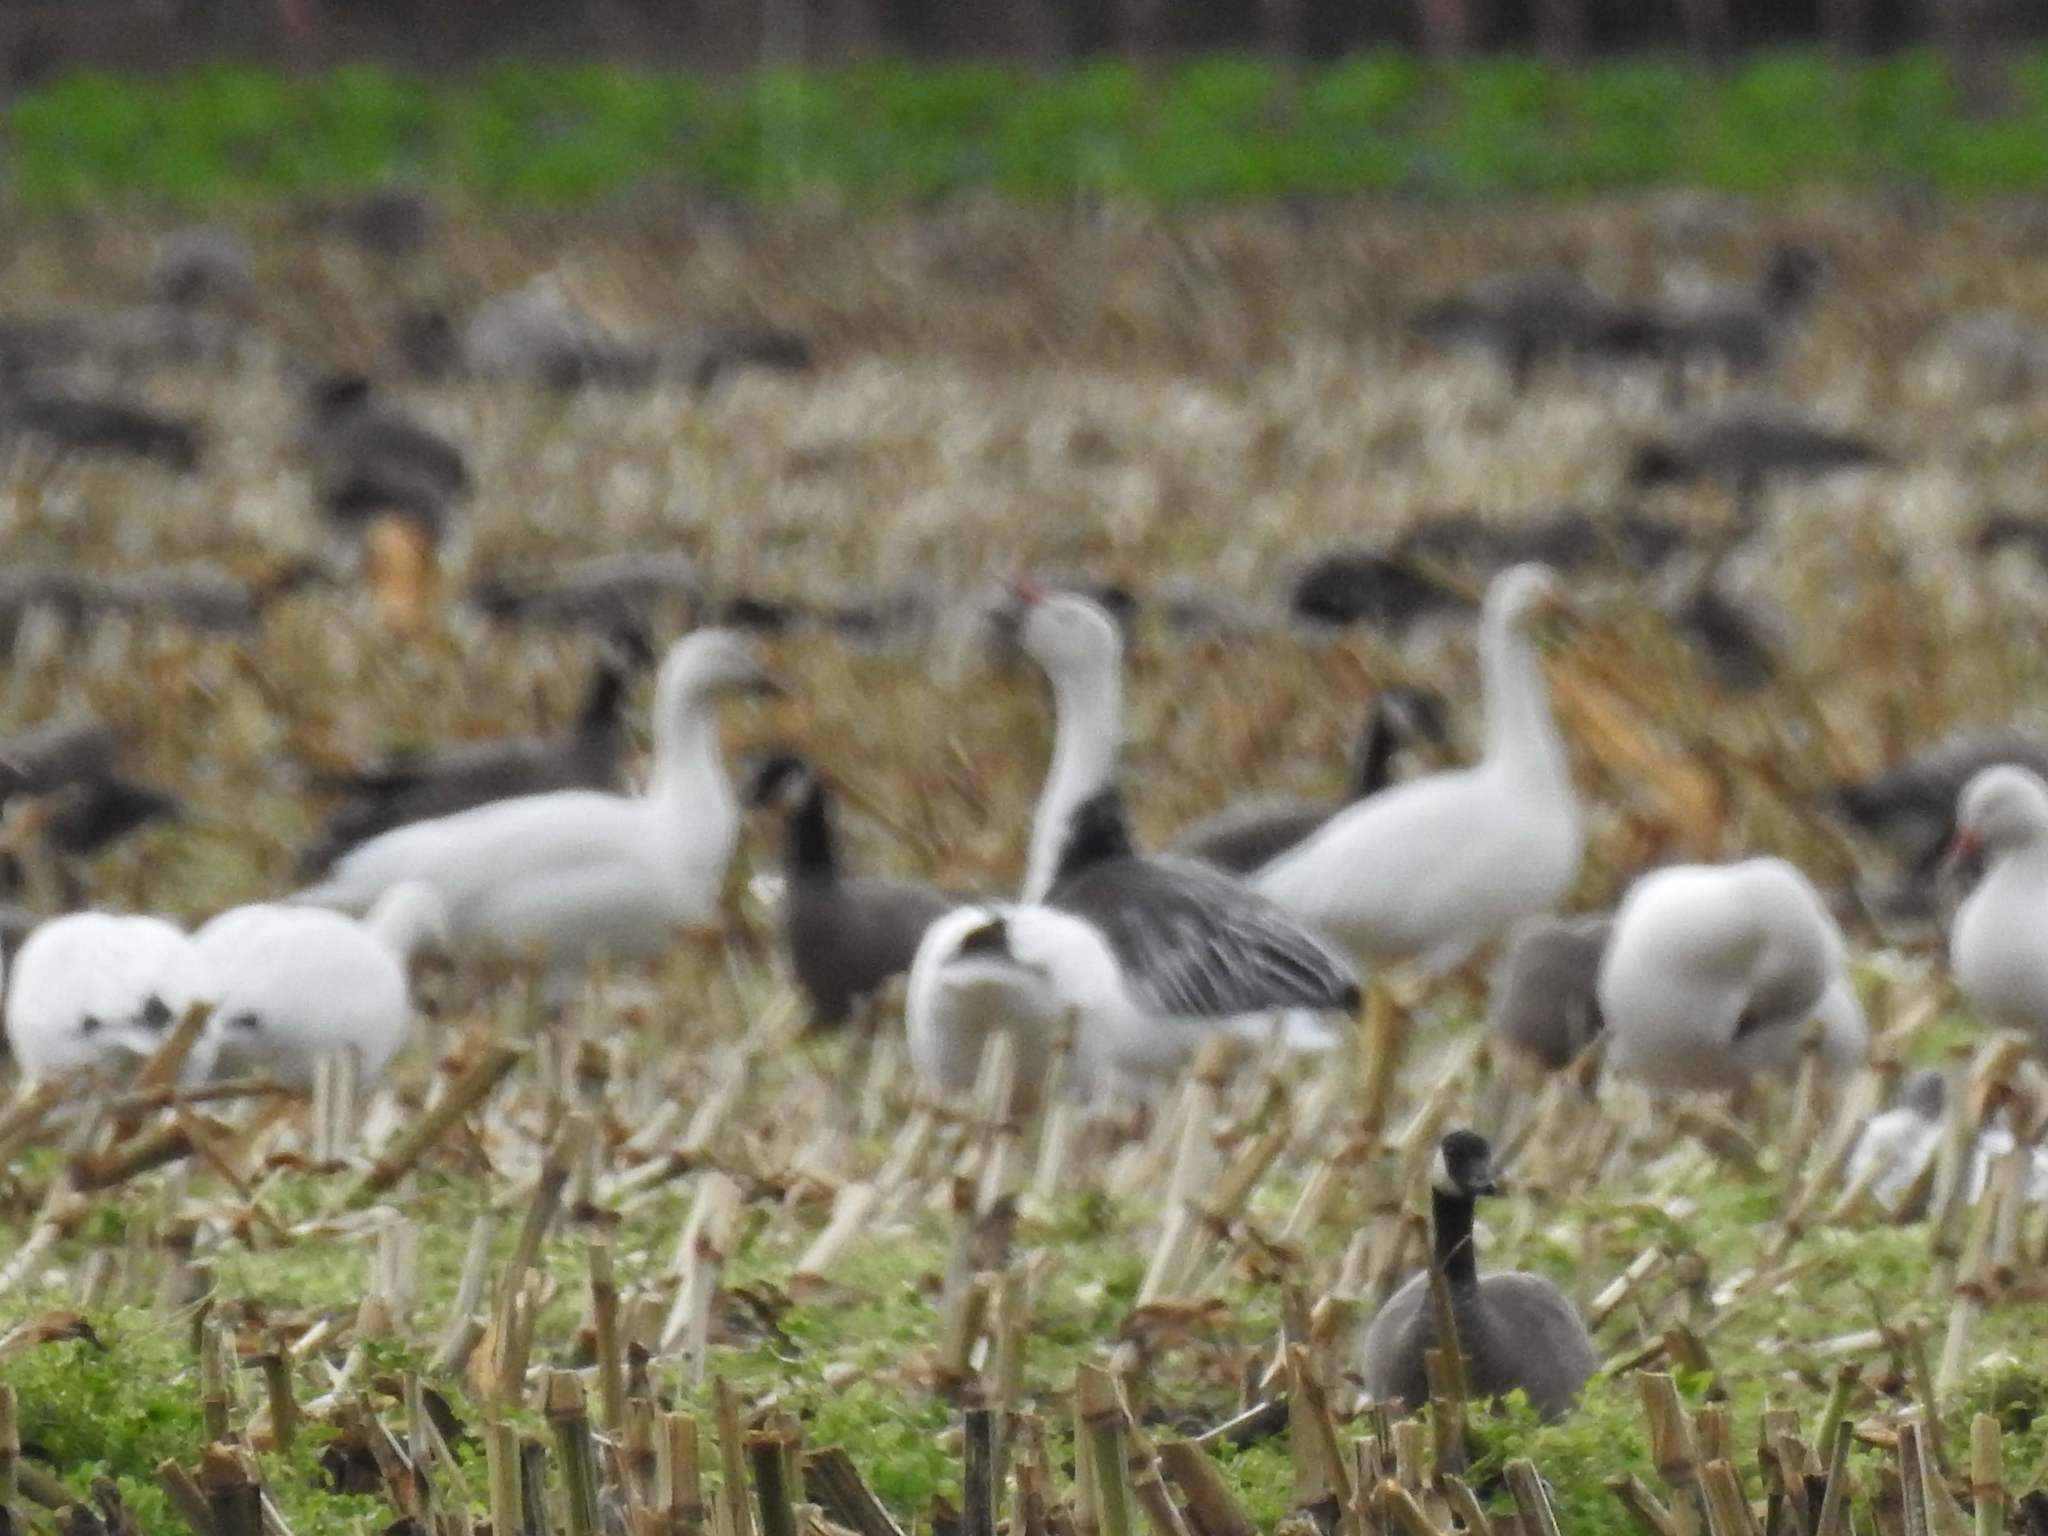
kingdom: Animalia
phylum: Chordata
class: Aves
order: Anseriformes
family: Anatidae
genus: Anser
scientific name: Anser caerulescens
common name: Snow goose
